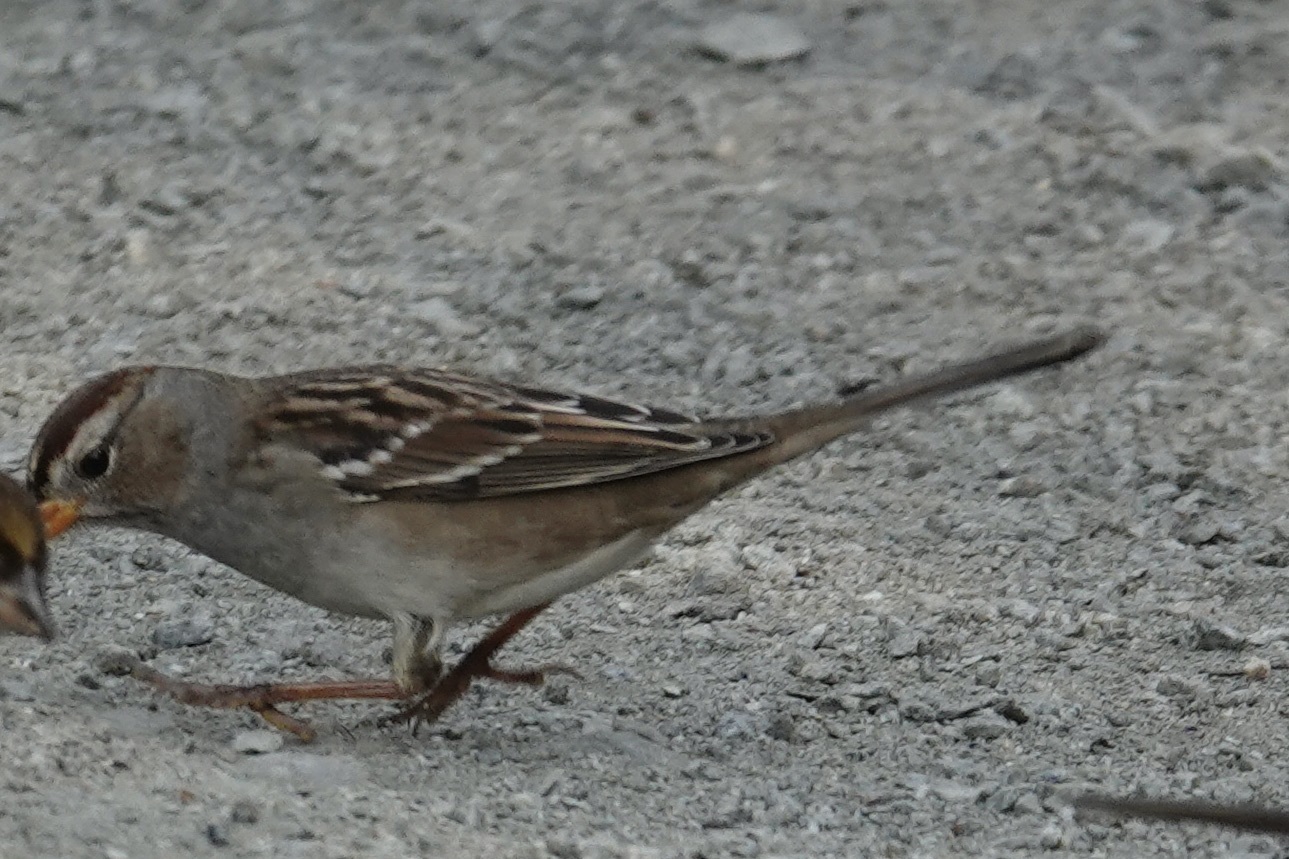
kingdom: Animalia
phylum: Chordata
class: Aves
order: Passeriformes
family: Passerellidae
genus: Zonotrichia
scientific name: Zonotrichia leucophrys
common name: White-crowned sparrow
